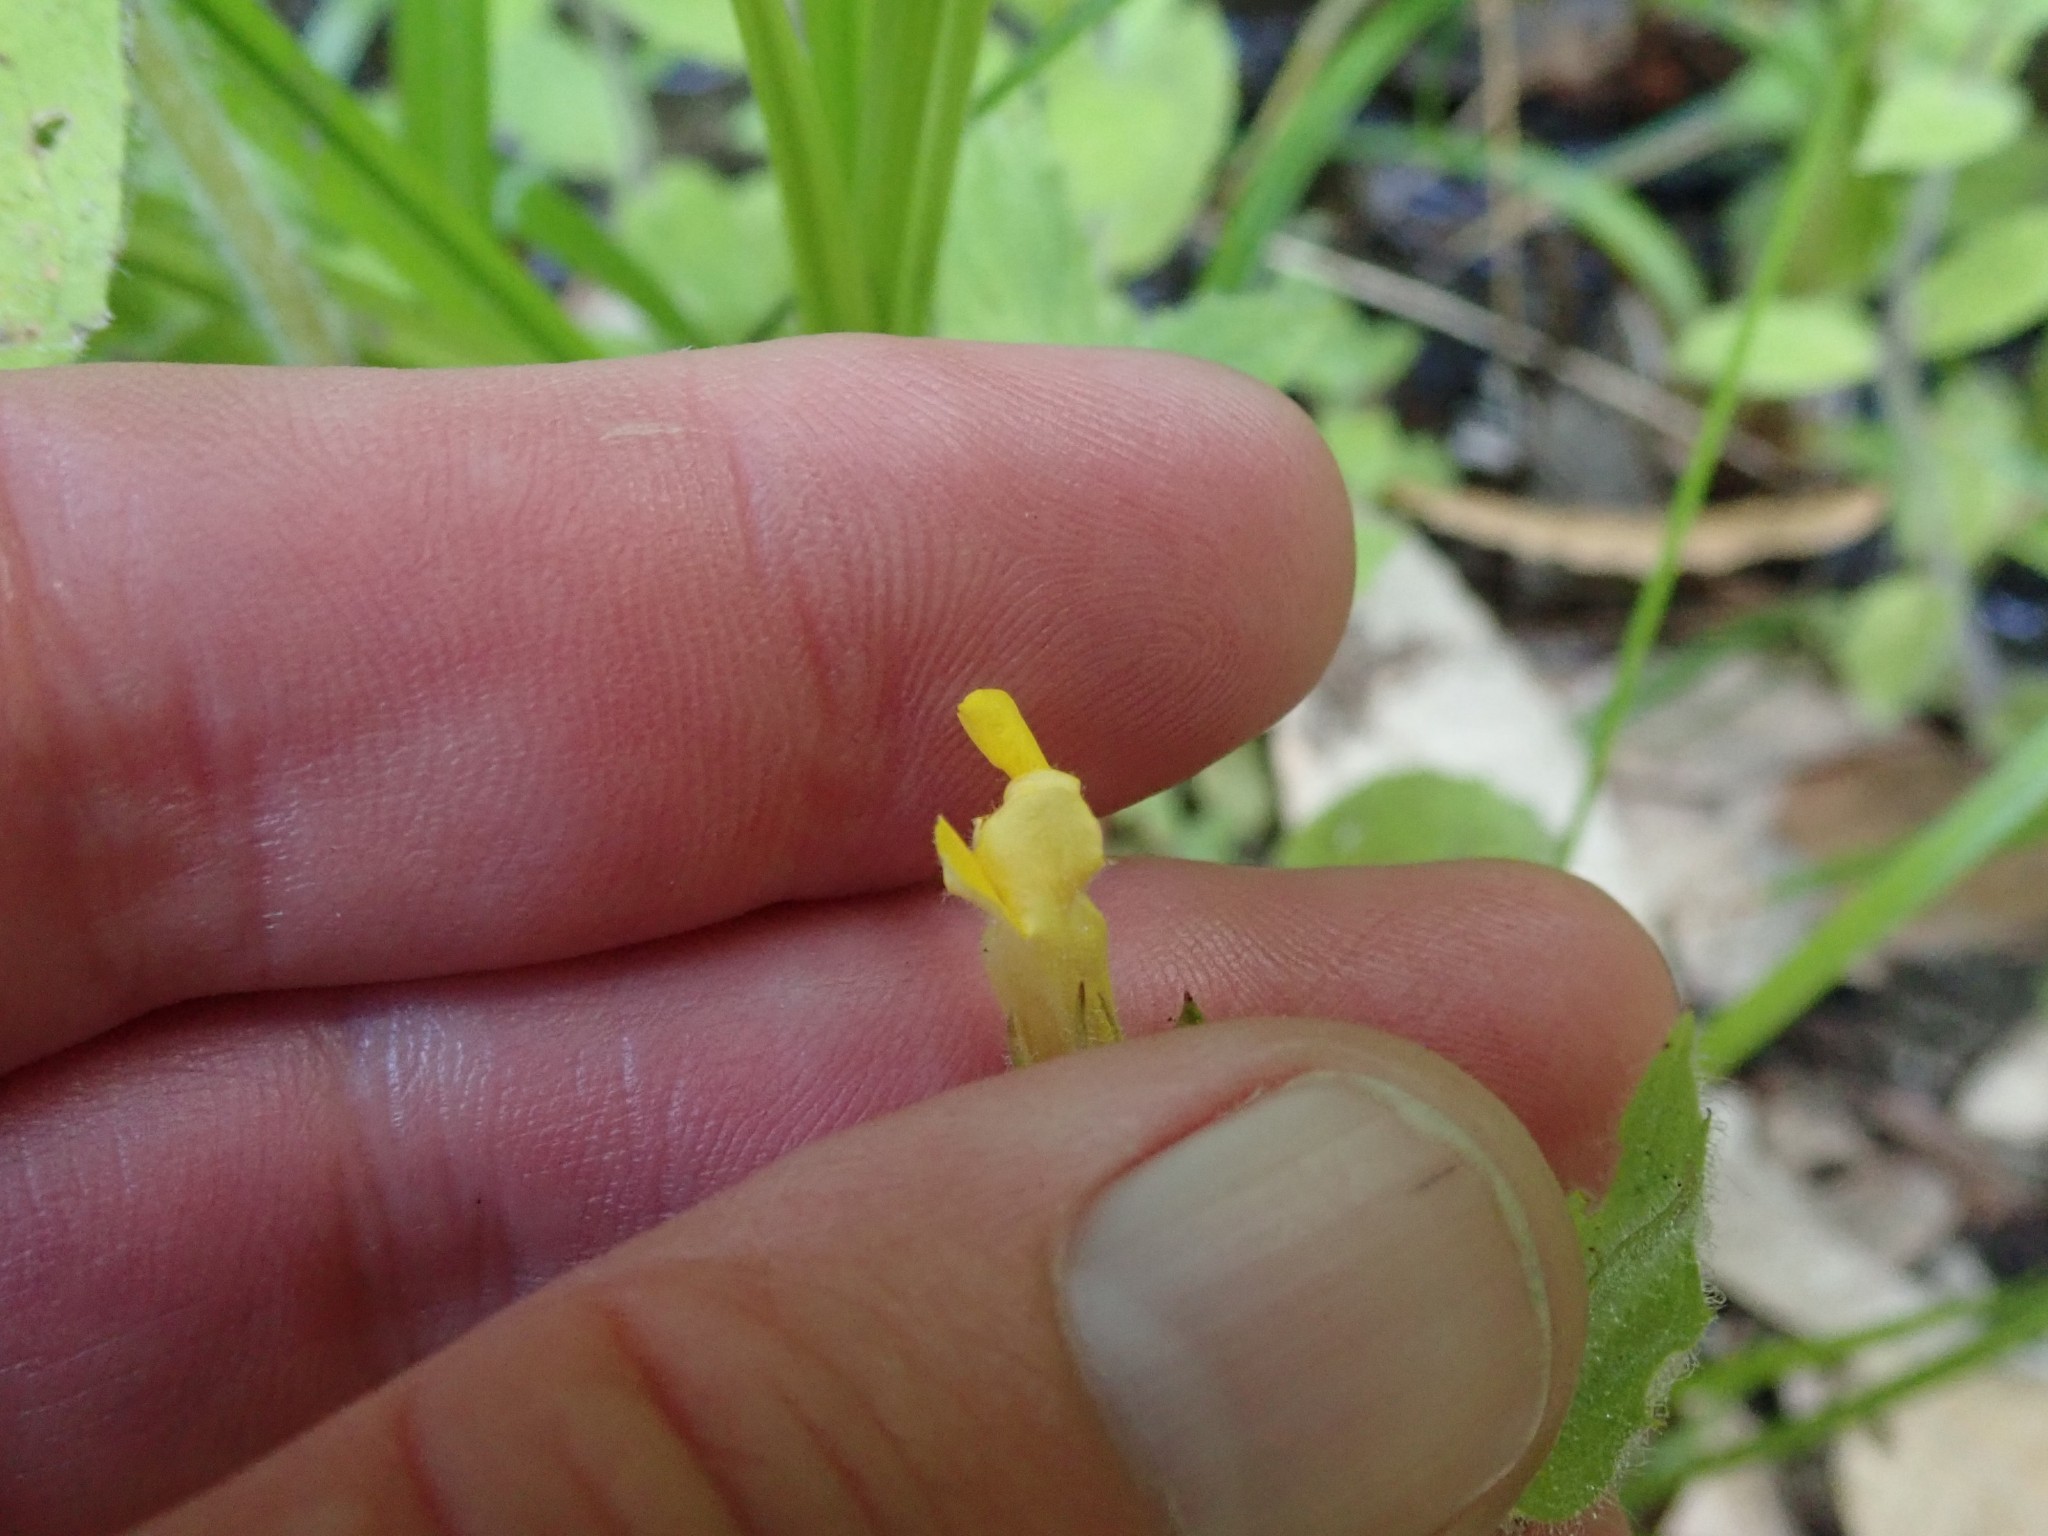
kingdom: Plantae
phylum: Tracheophyta
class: Magnoliopsida
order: Lamiales
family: Phrymaceae
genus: Erythranthe
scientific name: Erythranthe ptilota
